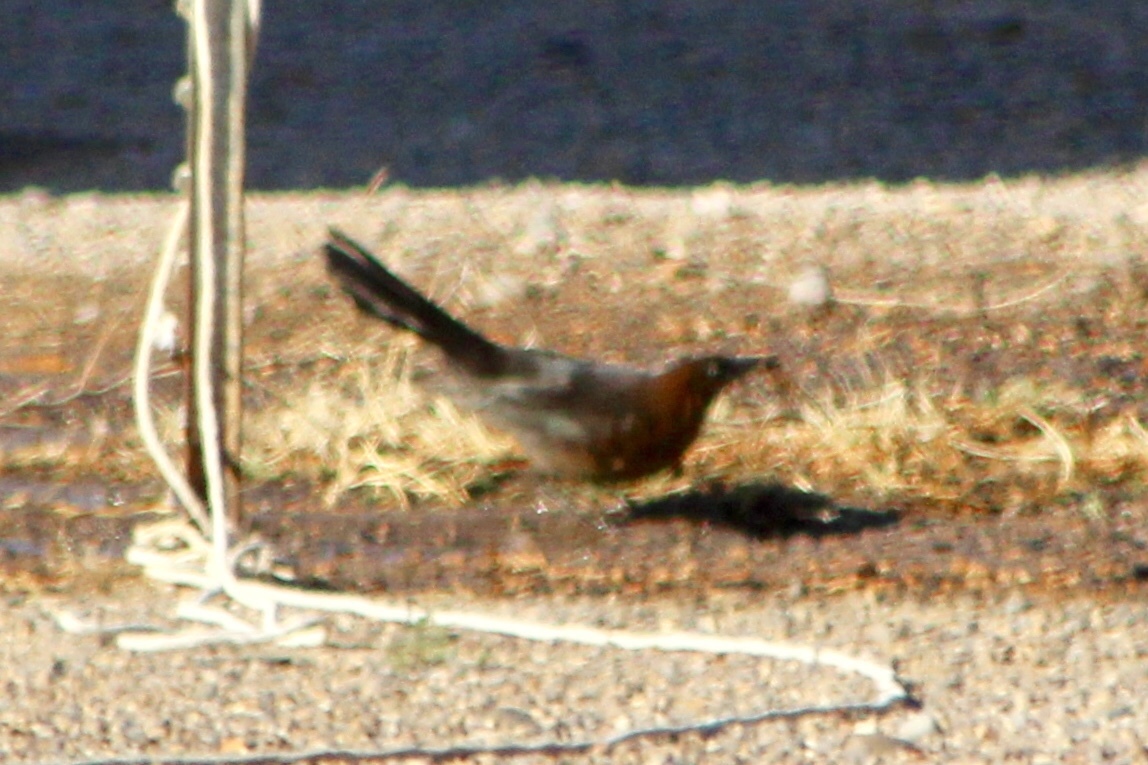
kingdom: Animalia
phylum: Chordata
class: Aves
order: Passeriformes
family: Icteridae
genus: Quiscalus
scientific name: Quiscalus mexicanus
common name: Great-tailed grackle
